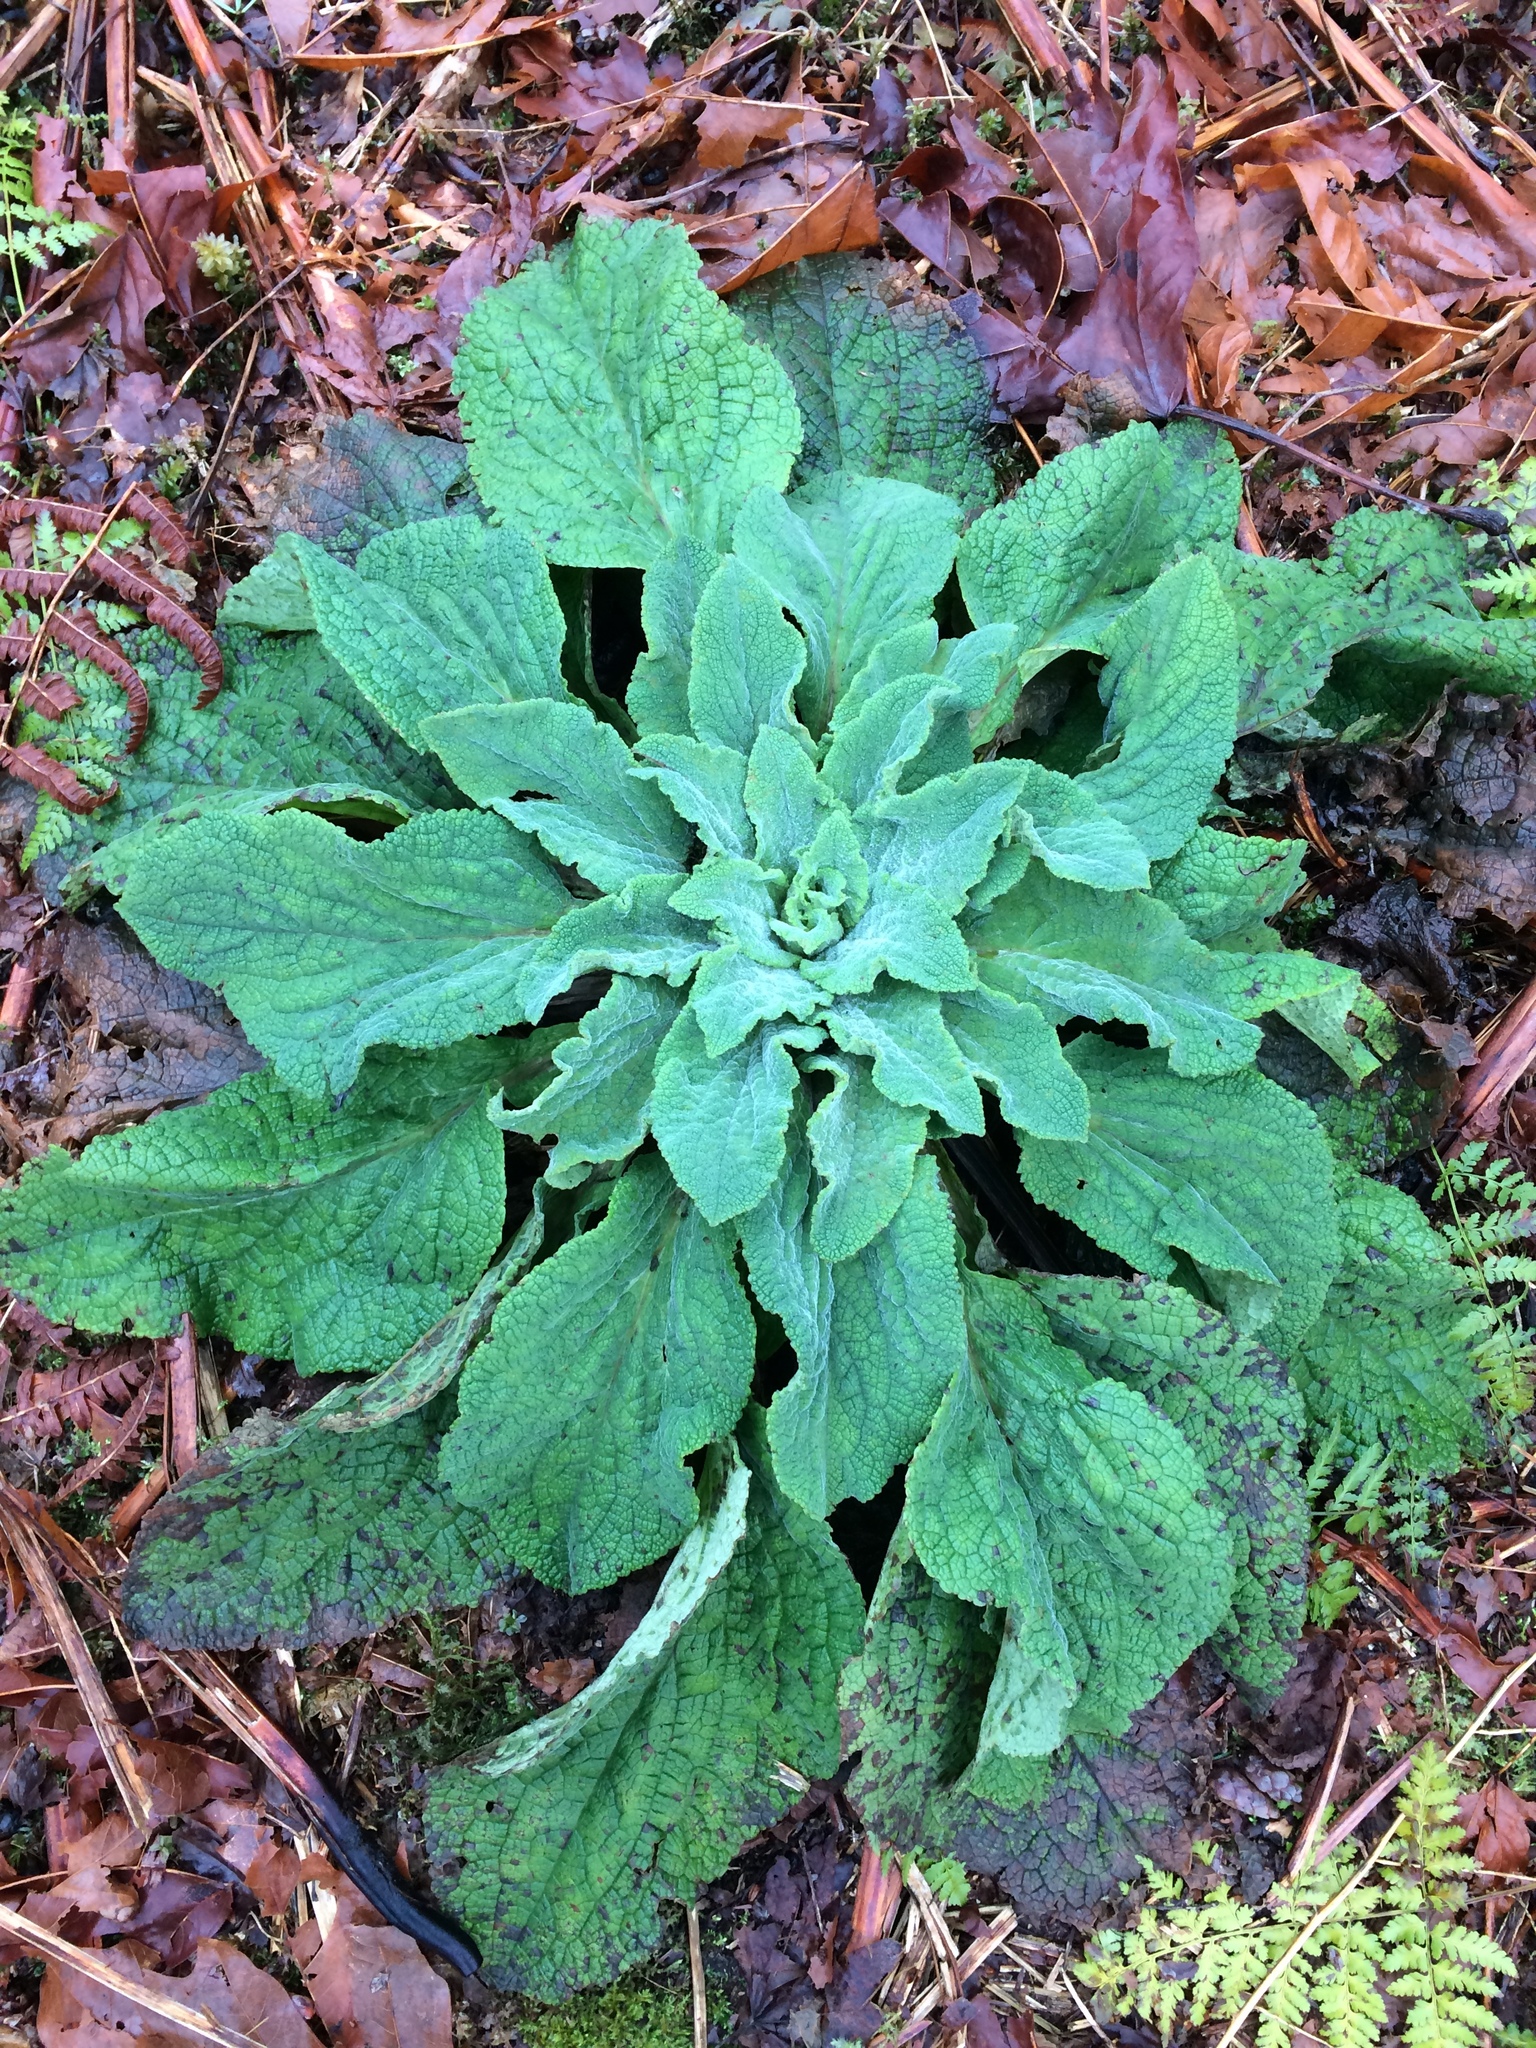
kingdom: Plantae
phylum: Tracheophyta
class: Magnoliopsida
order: Lamiales
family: Plantaginaceae
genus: Digitalis
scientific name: Digitalis purpurea
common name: Foxglove
